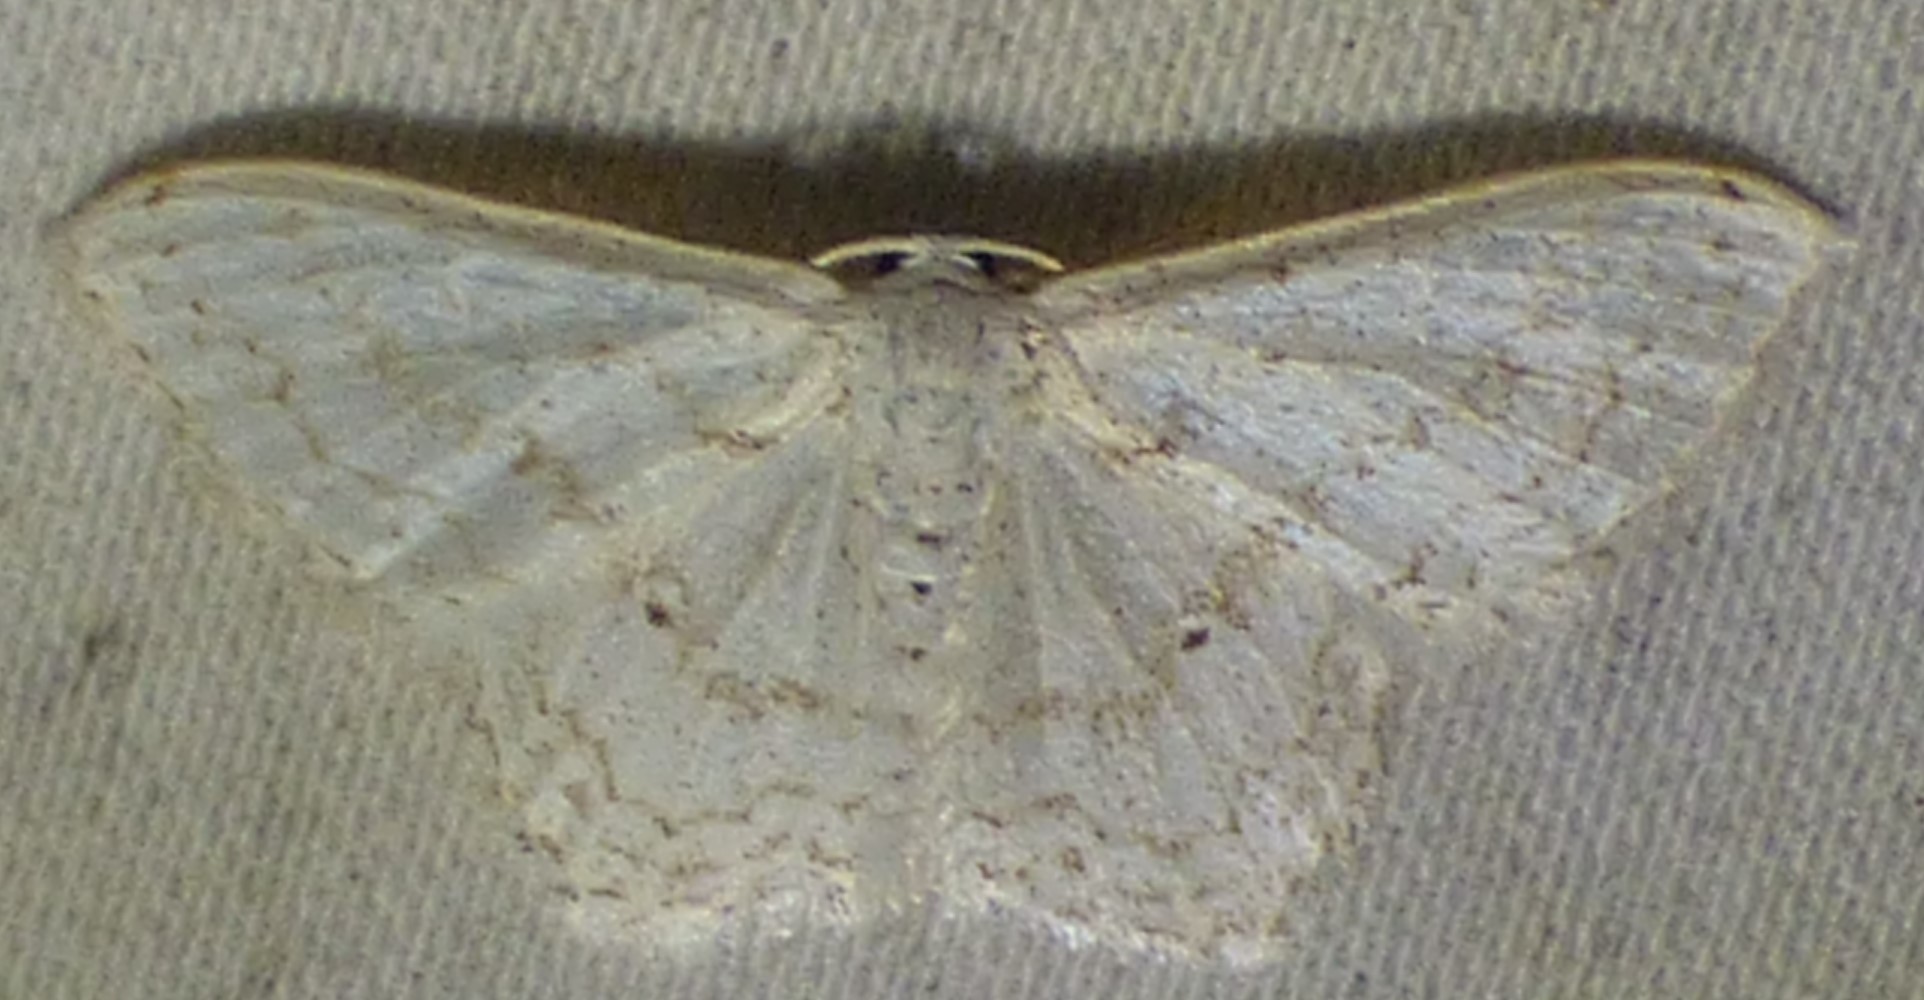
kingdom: Animalia
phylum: Arthropoda
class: Insecta
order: Lepidoptera
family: Geometridae
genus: Scopula
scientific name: Scopula limboundata
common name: Large lace border
